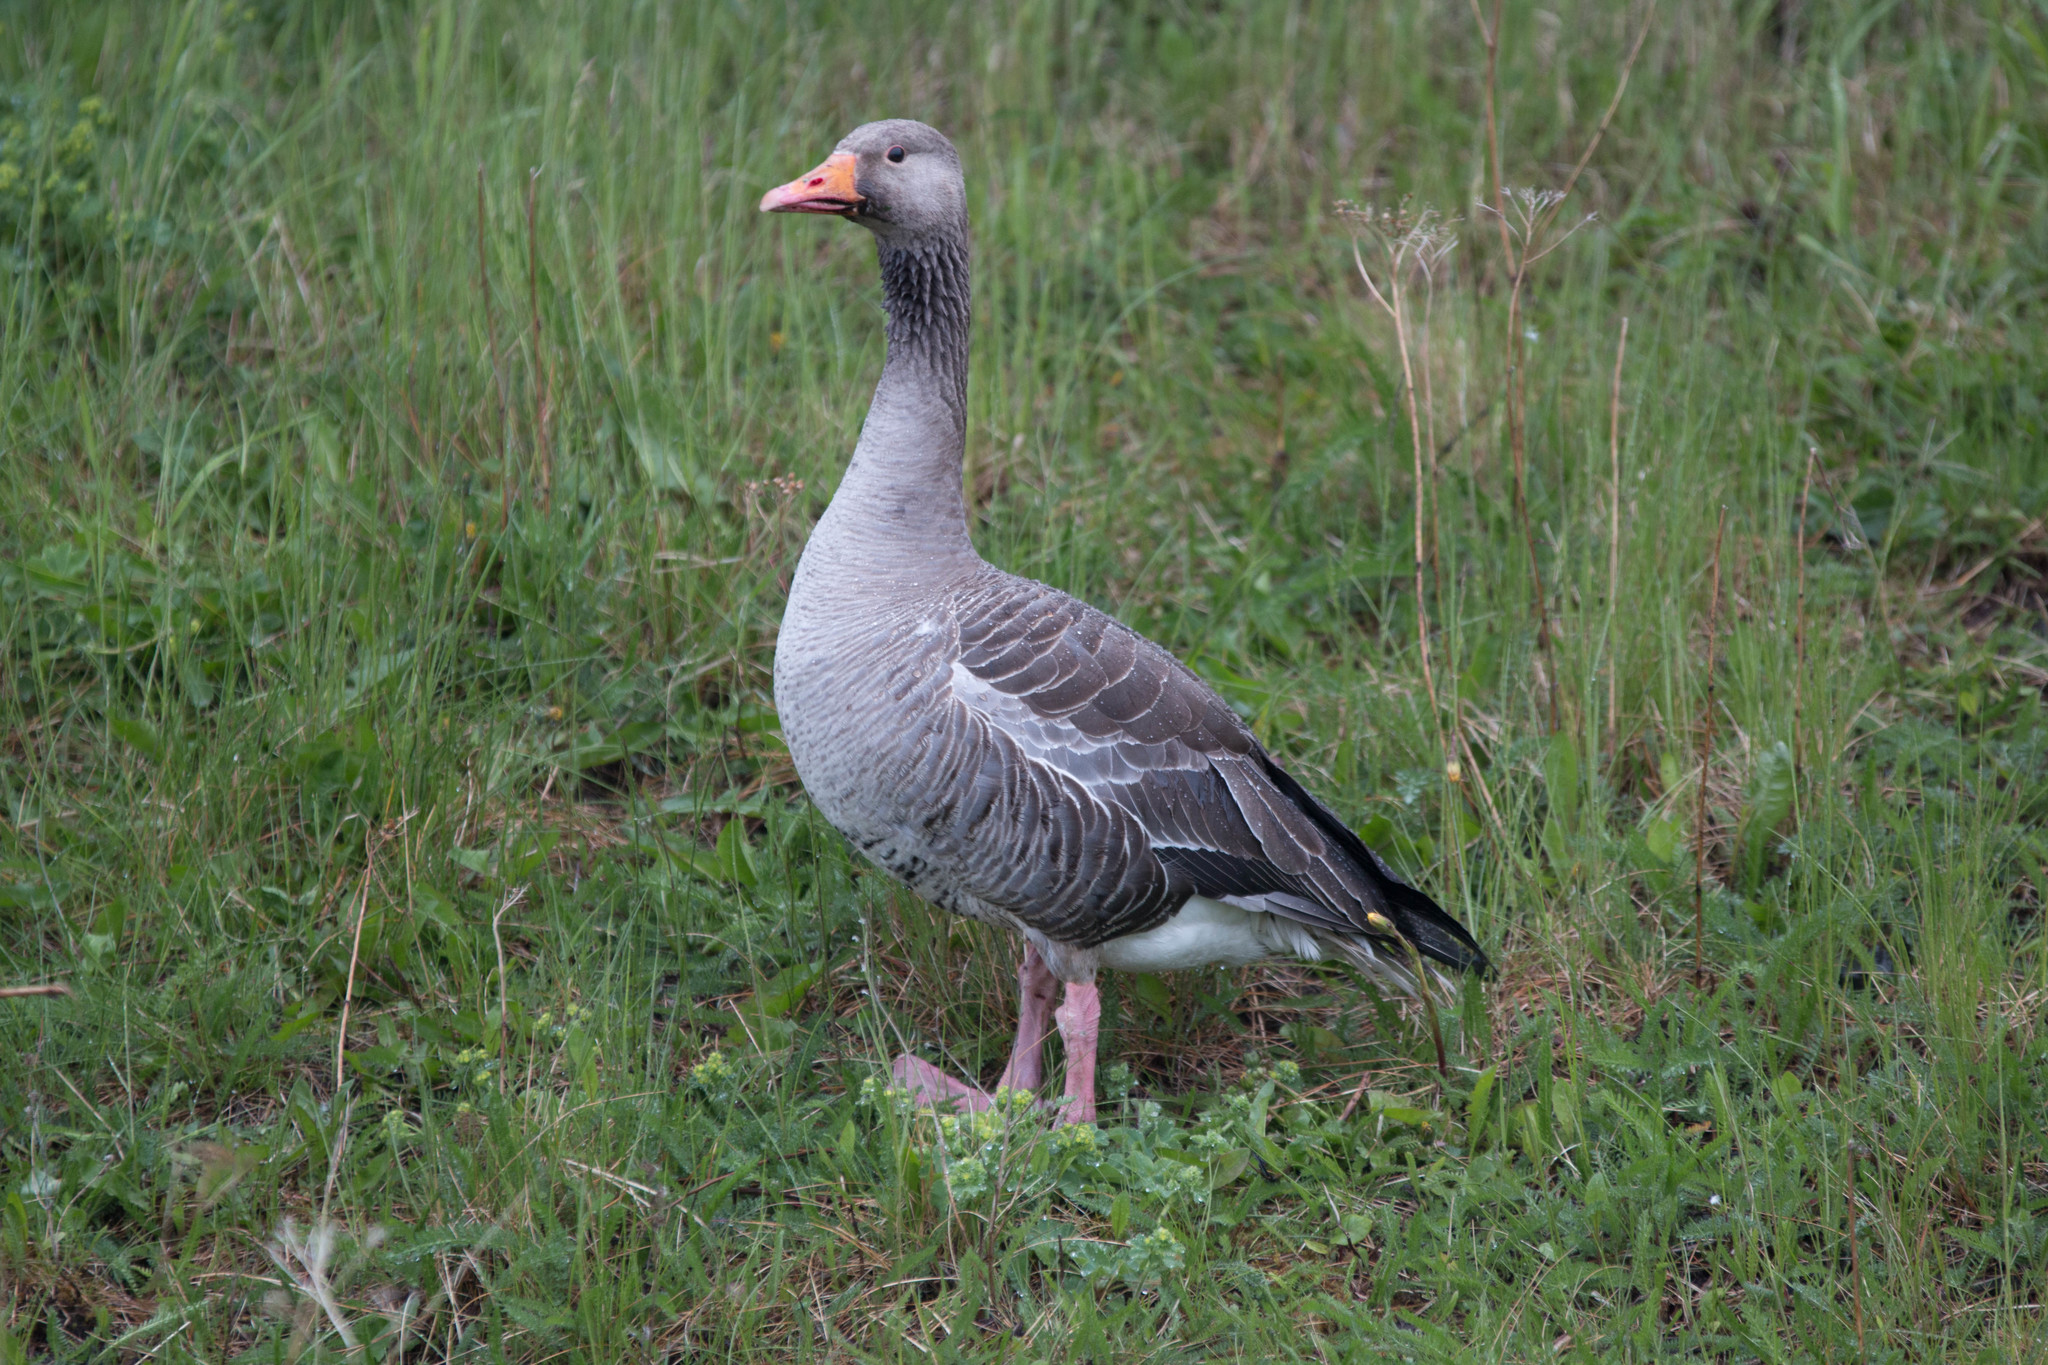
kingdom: Animalia
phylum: Chordata
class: Aves
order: Anseriformes
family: Anatidae
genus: Anser
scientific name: Anser anser
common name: Greylag goose
